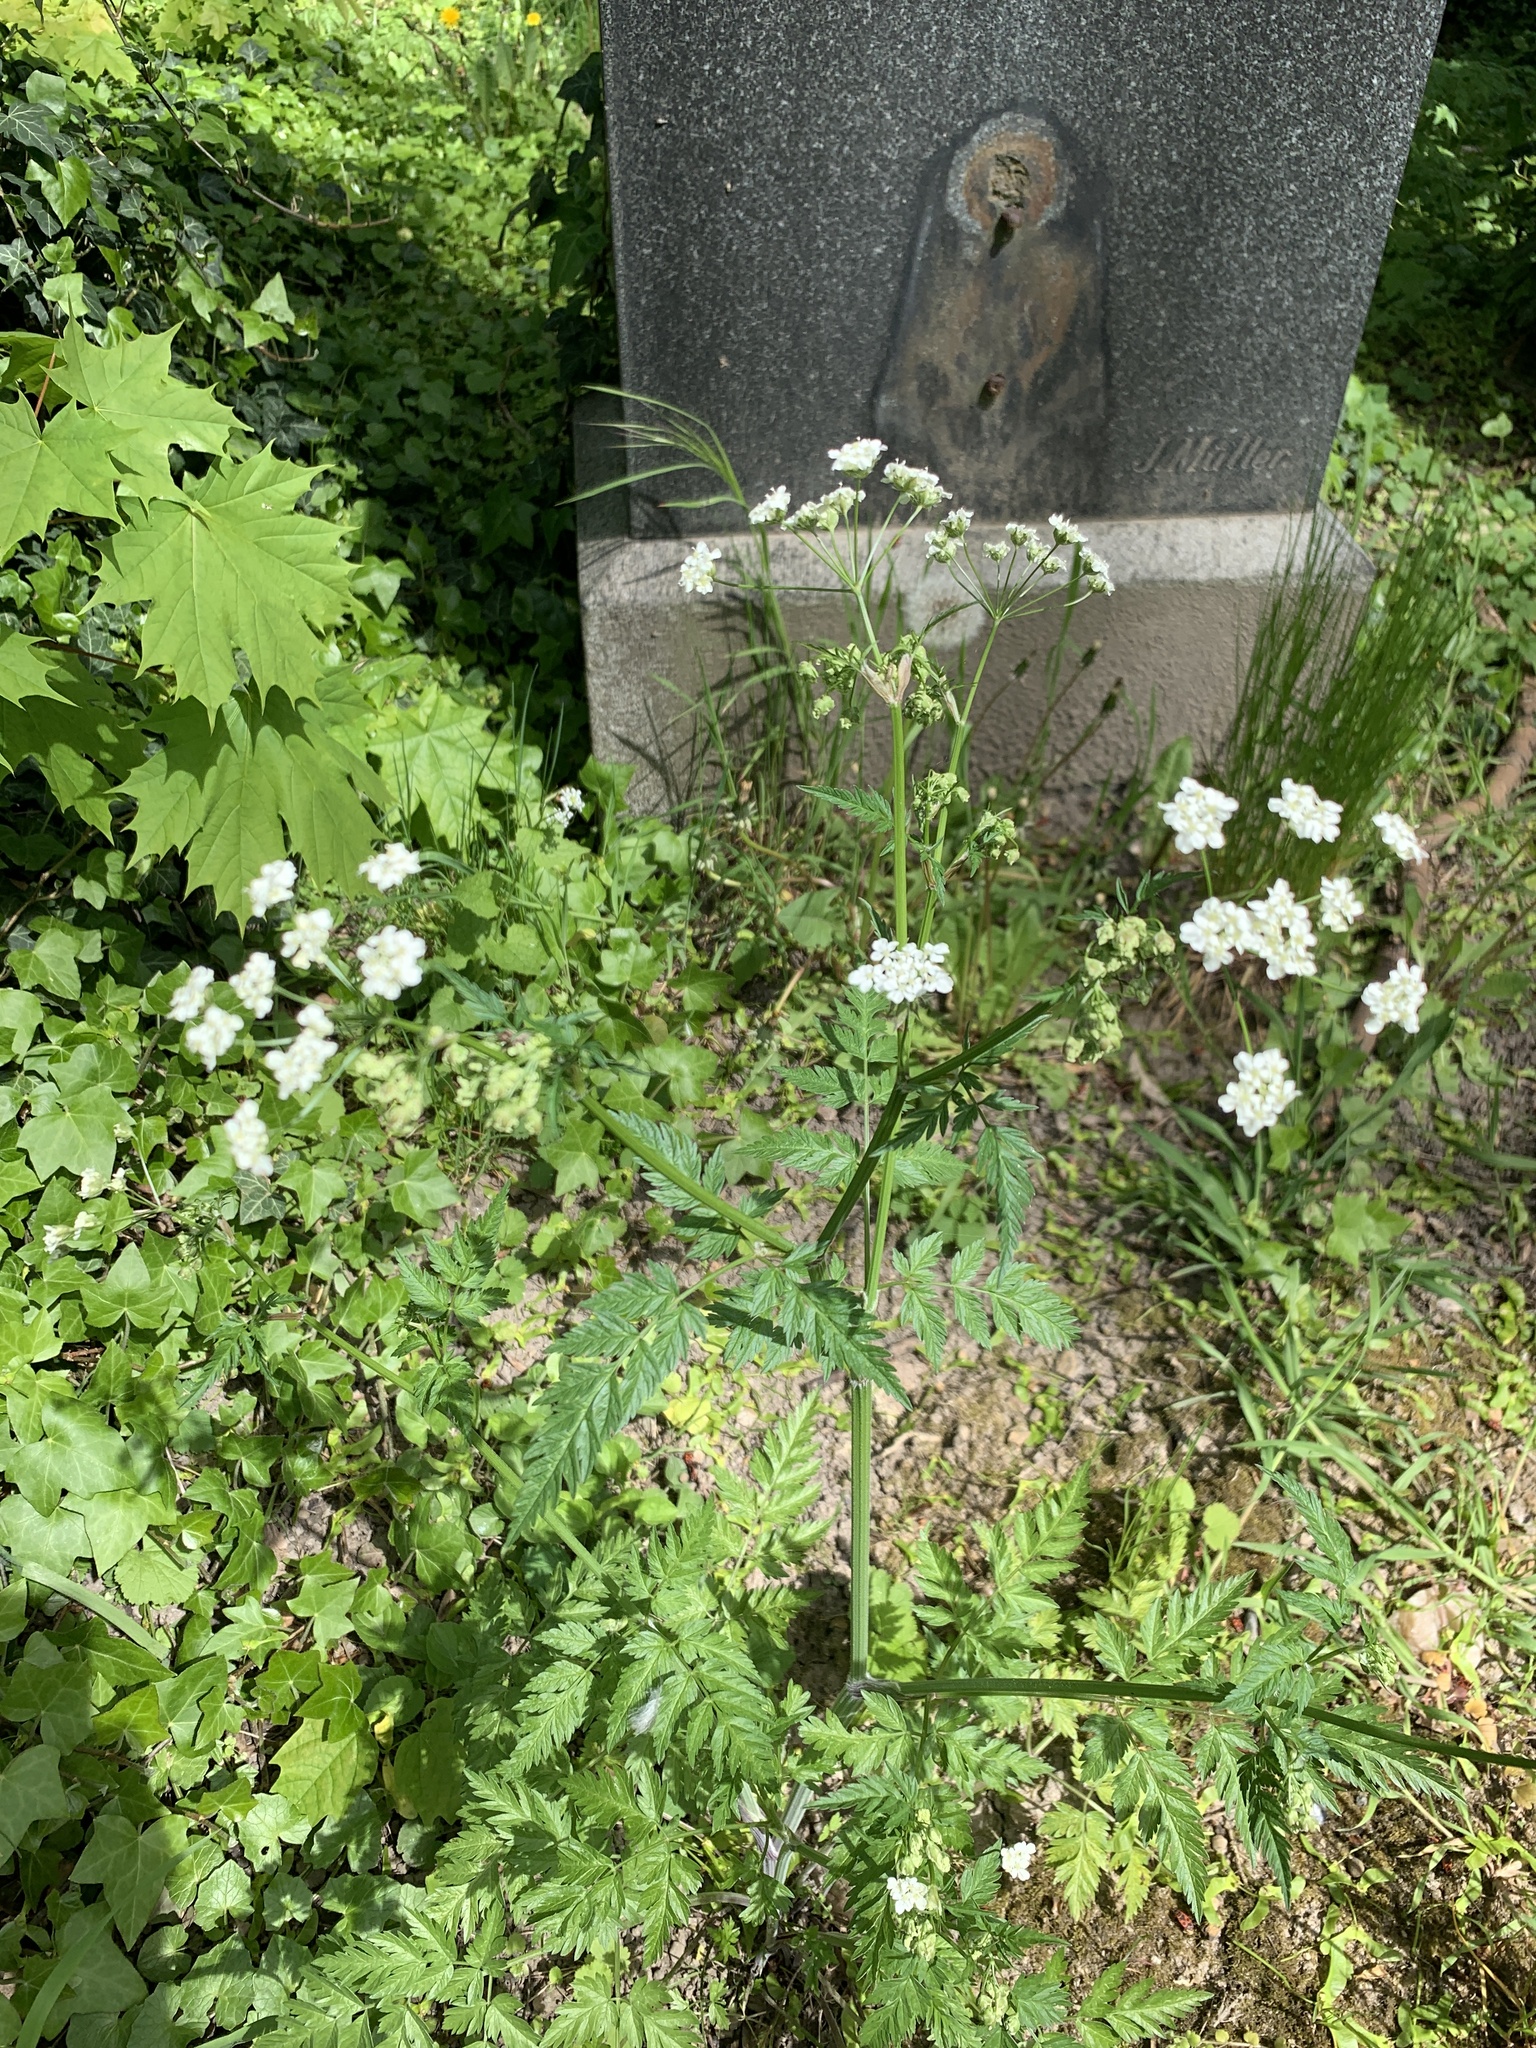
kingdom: Plantae
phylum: Tracheophyta
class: Magnoliopsida
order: Apiales
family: Apiaceae
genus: Anthriscus
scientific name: Anthriscus sylvestris
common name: Cow parsley
